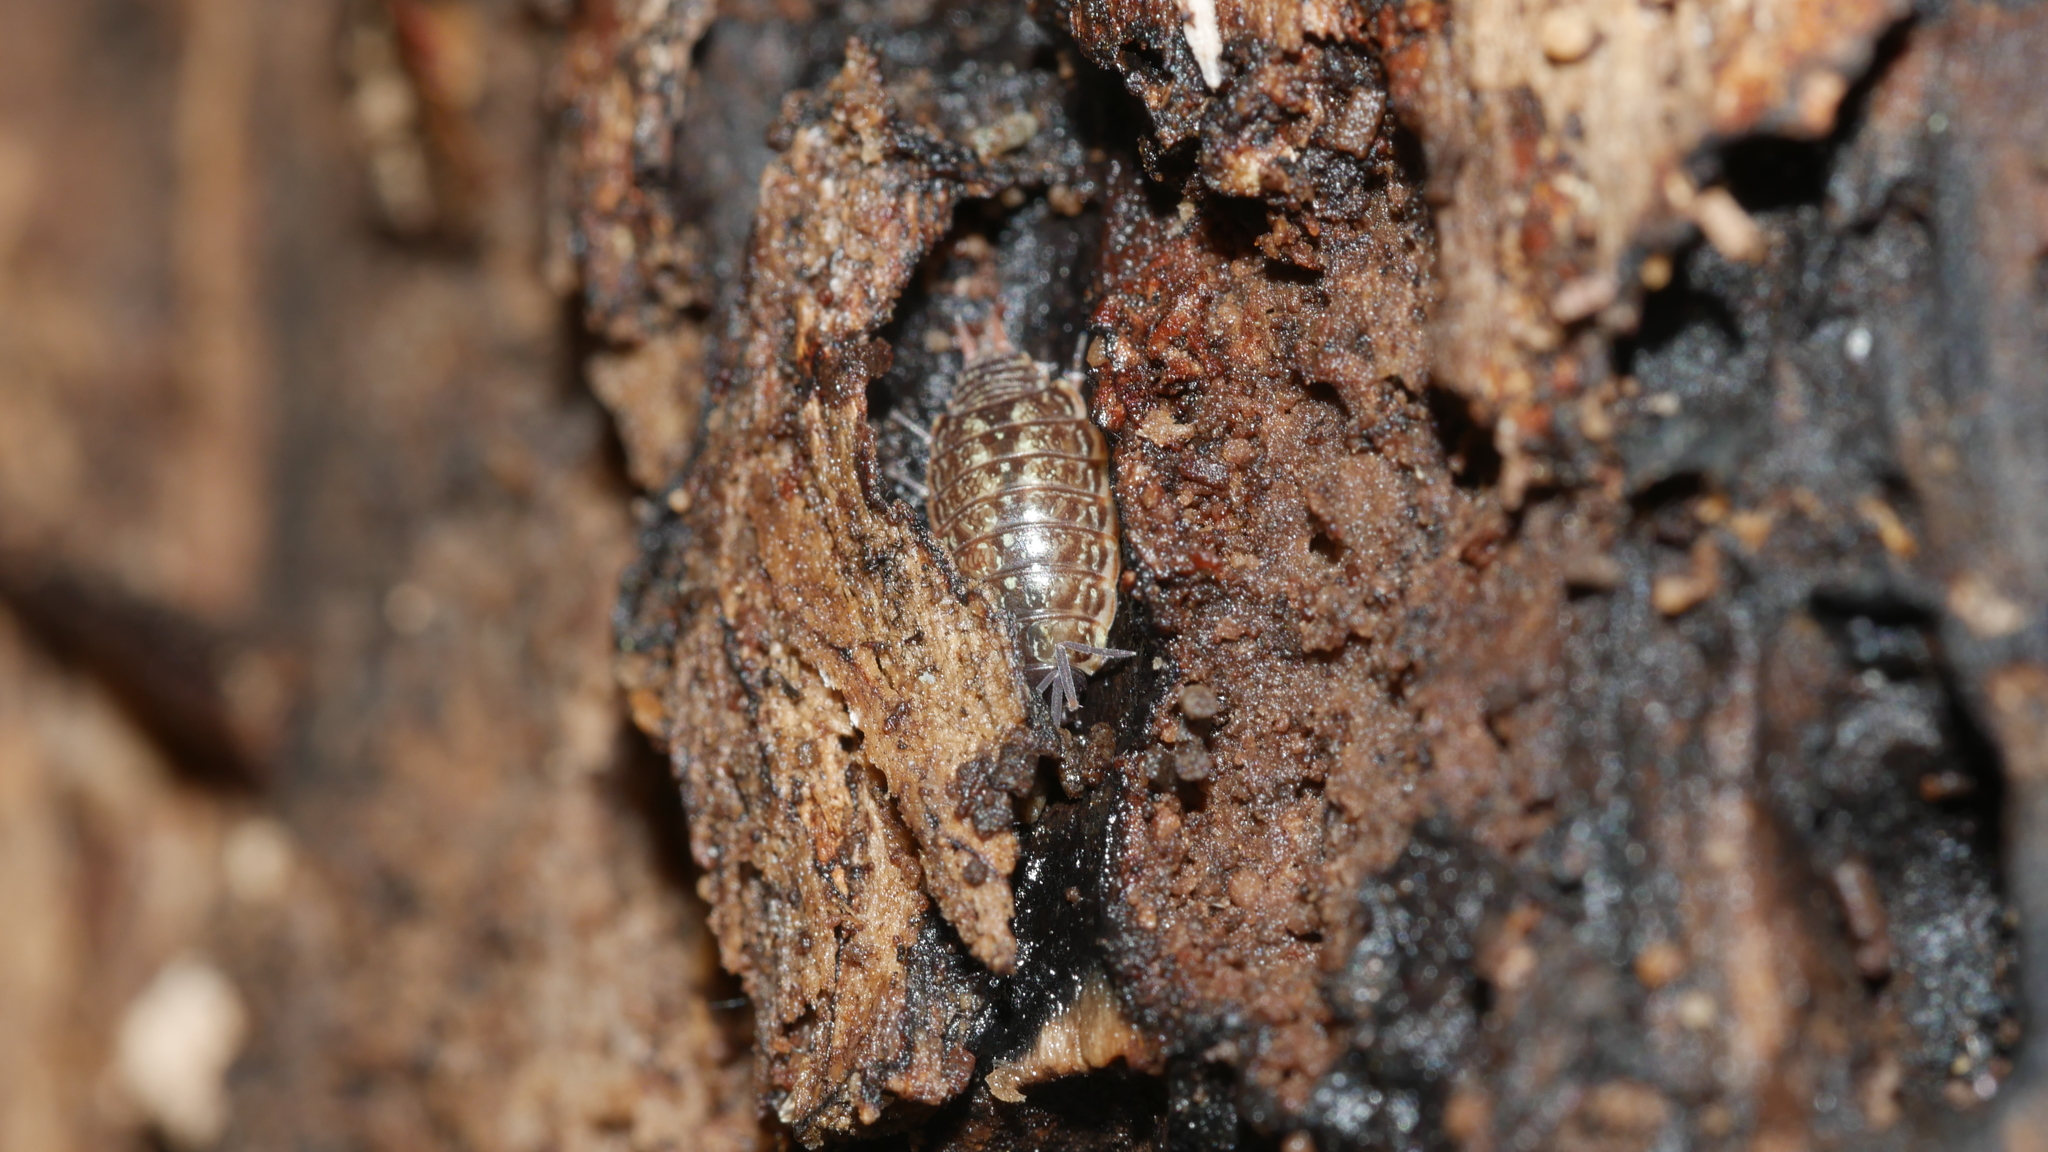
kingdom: Animalia
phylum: Arthropoda
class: Malacostraca
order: Isopoda
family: Philosciidae
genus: Philoscia
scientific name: Philoscia muscorum
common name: Common striped woodlouse
